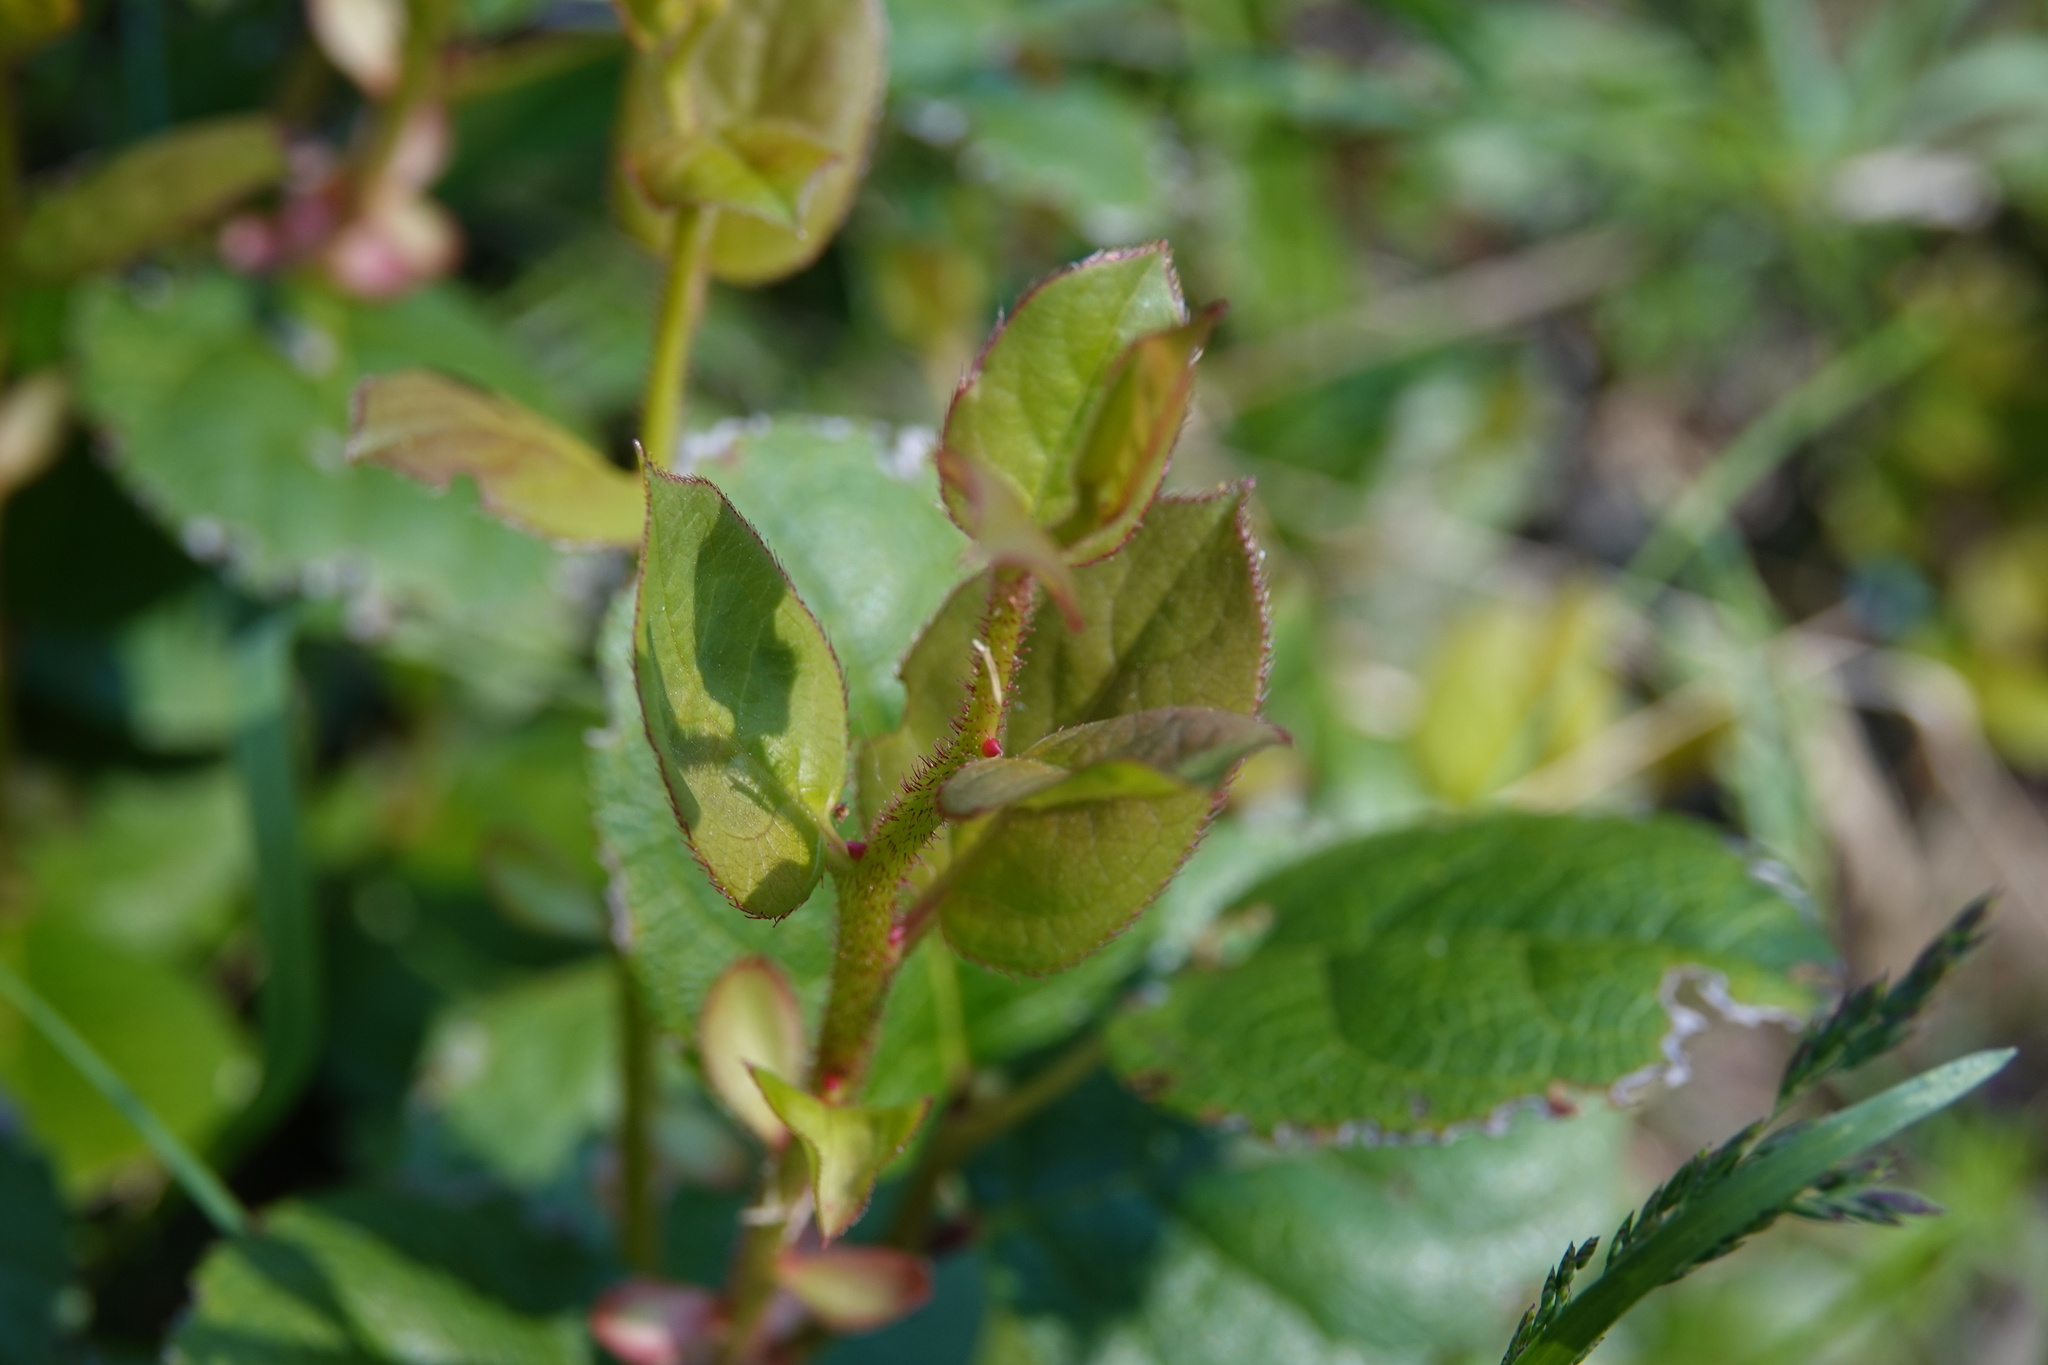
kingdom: Plantae
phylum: Tracheophyta
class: Magnoliopsida
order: Ericales
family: Ericaceae
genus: Gaultheria
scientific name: Gaultheria shallon
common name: Shallon
